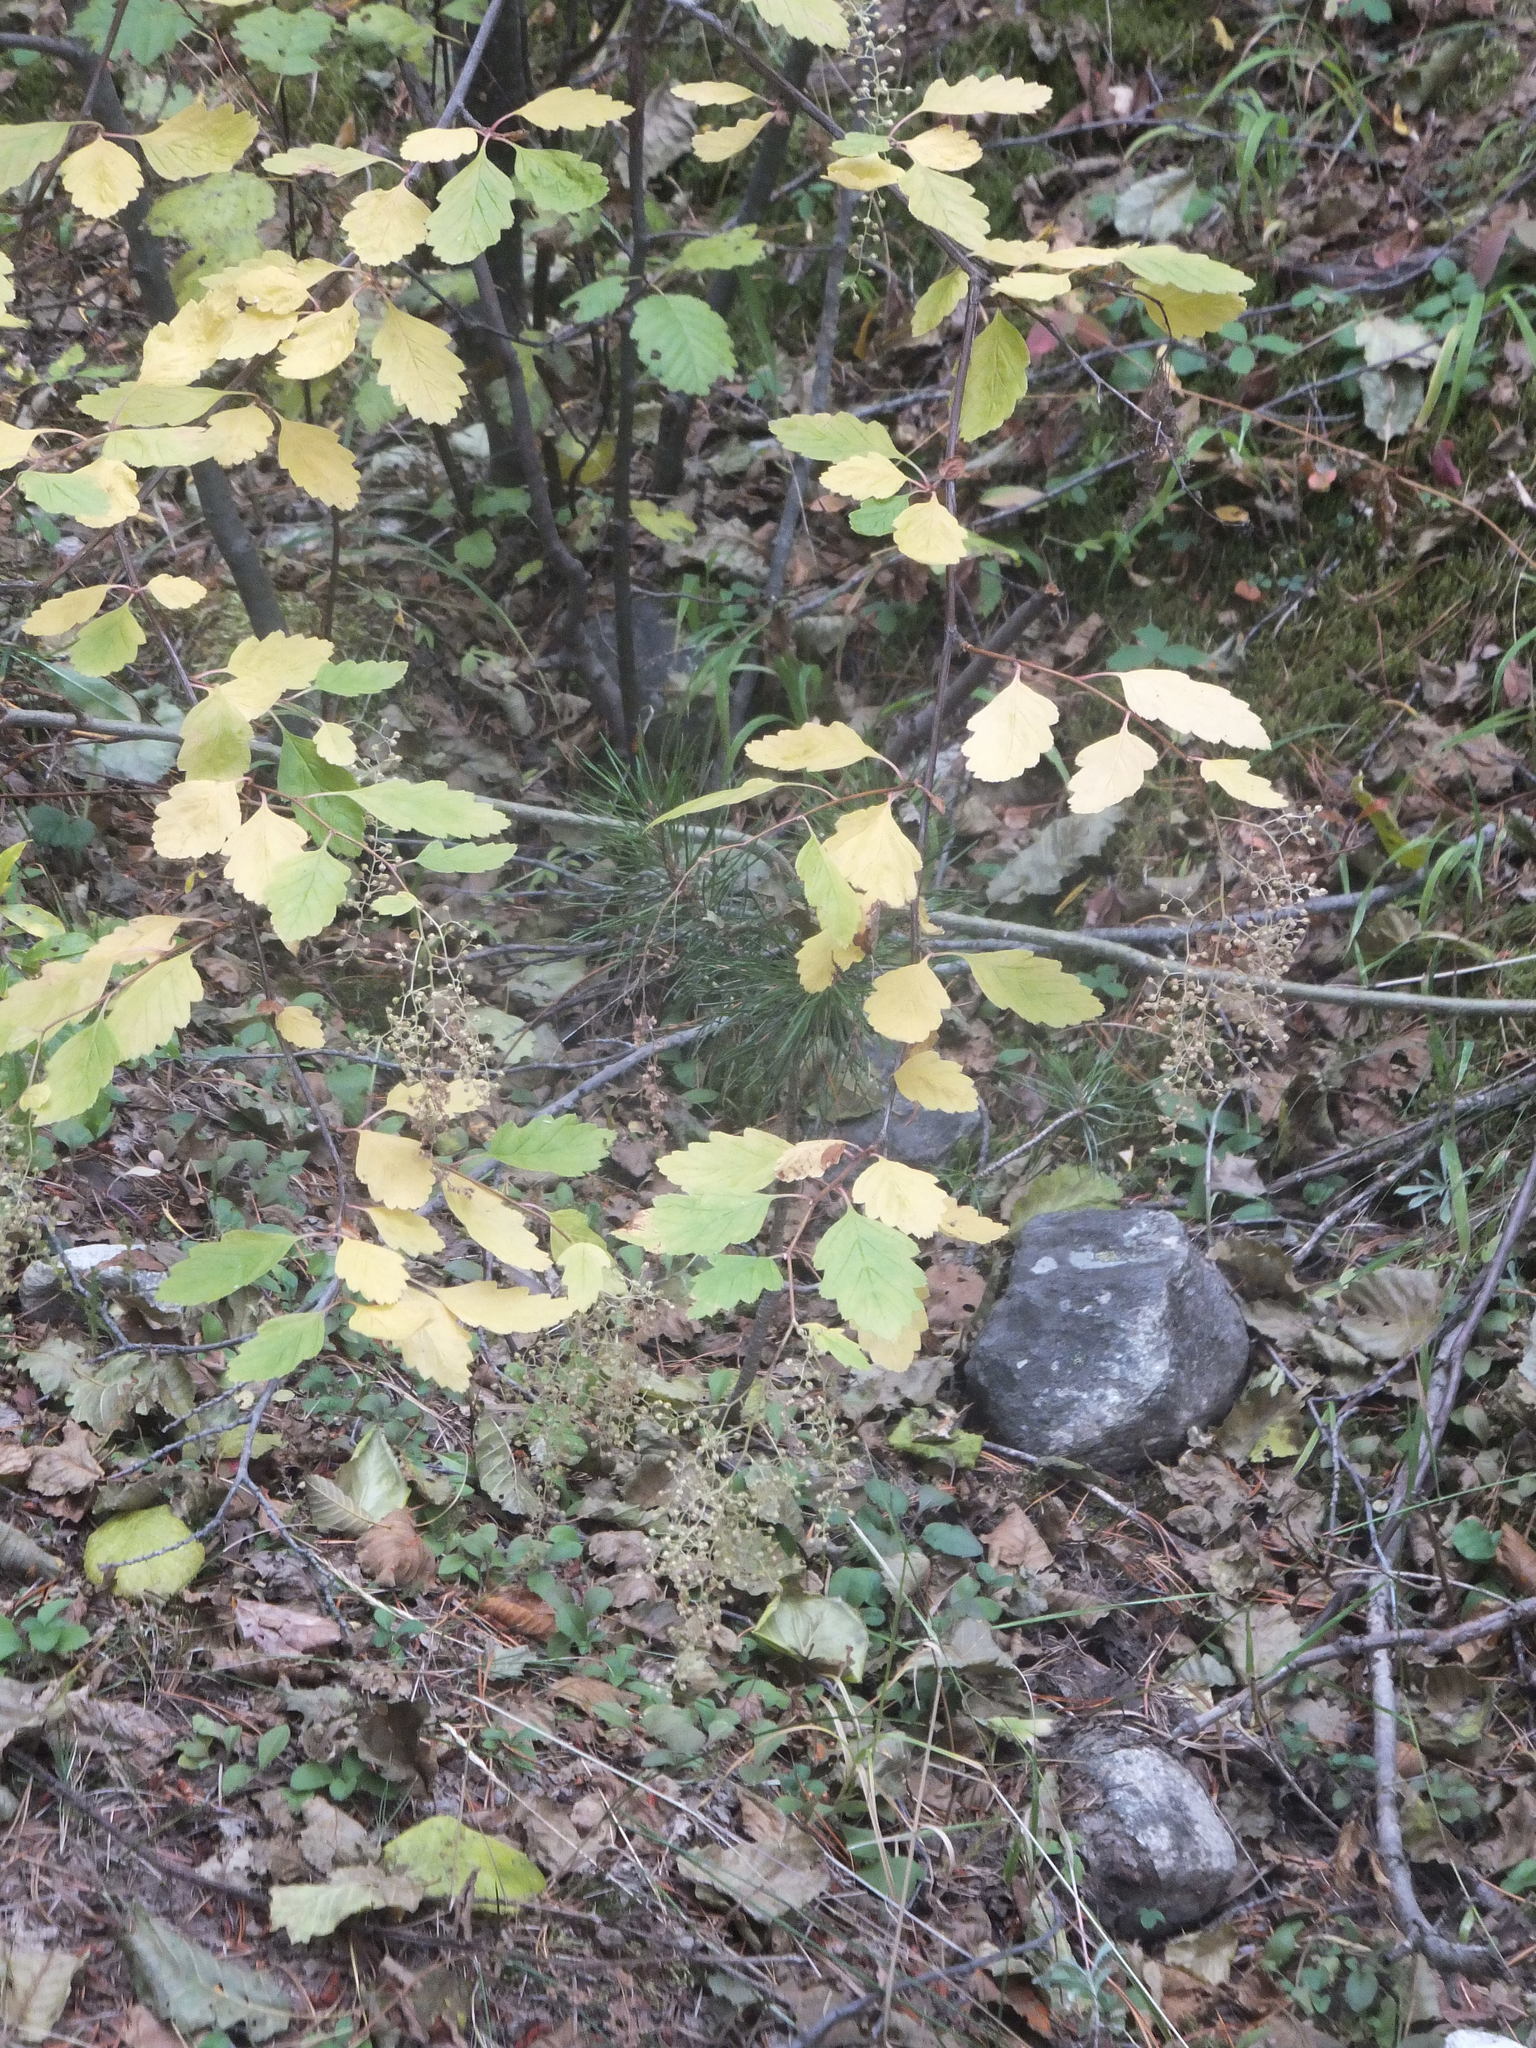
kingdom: Plantae
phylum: Tracheophyta
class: Magnoliopsida
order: Rosales
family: Rosaceae
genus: Holodiscus
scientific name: Holodiscus discolor
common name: Oceanspray
